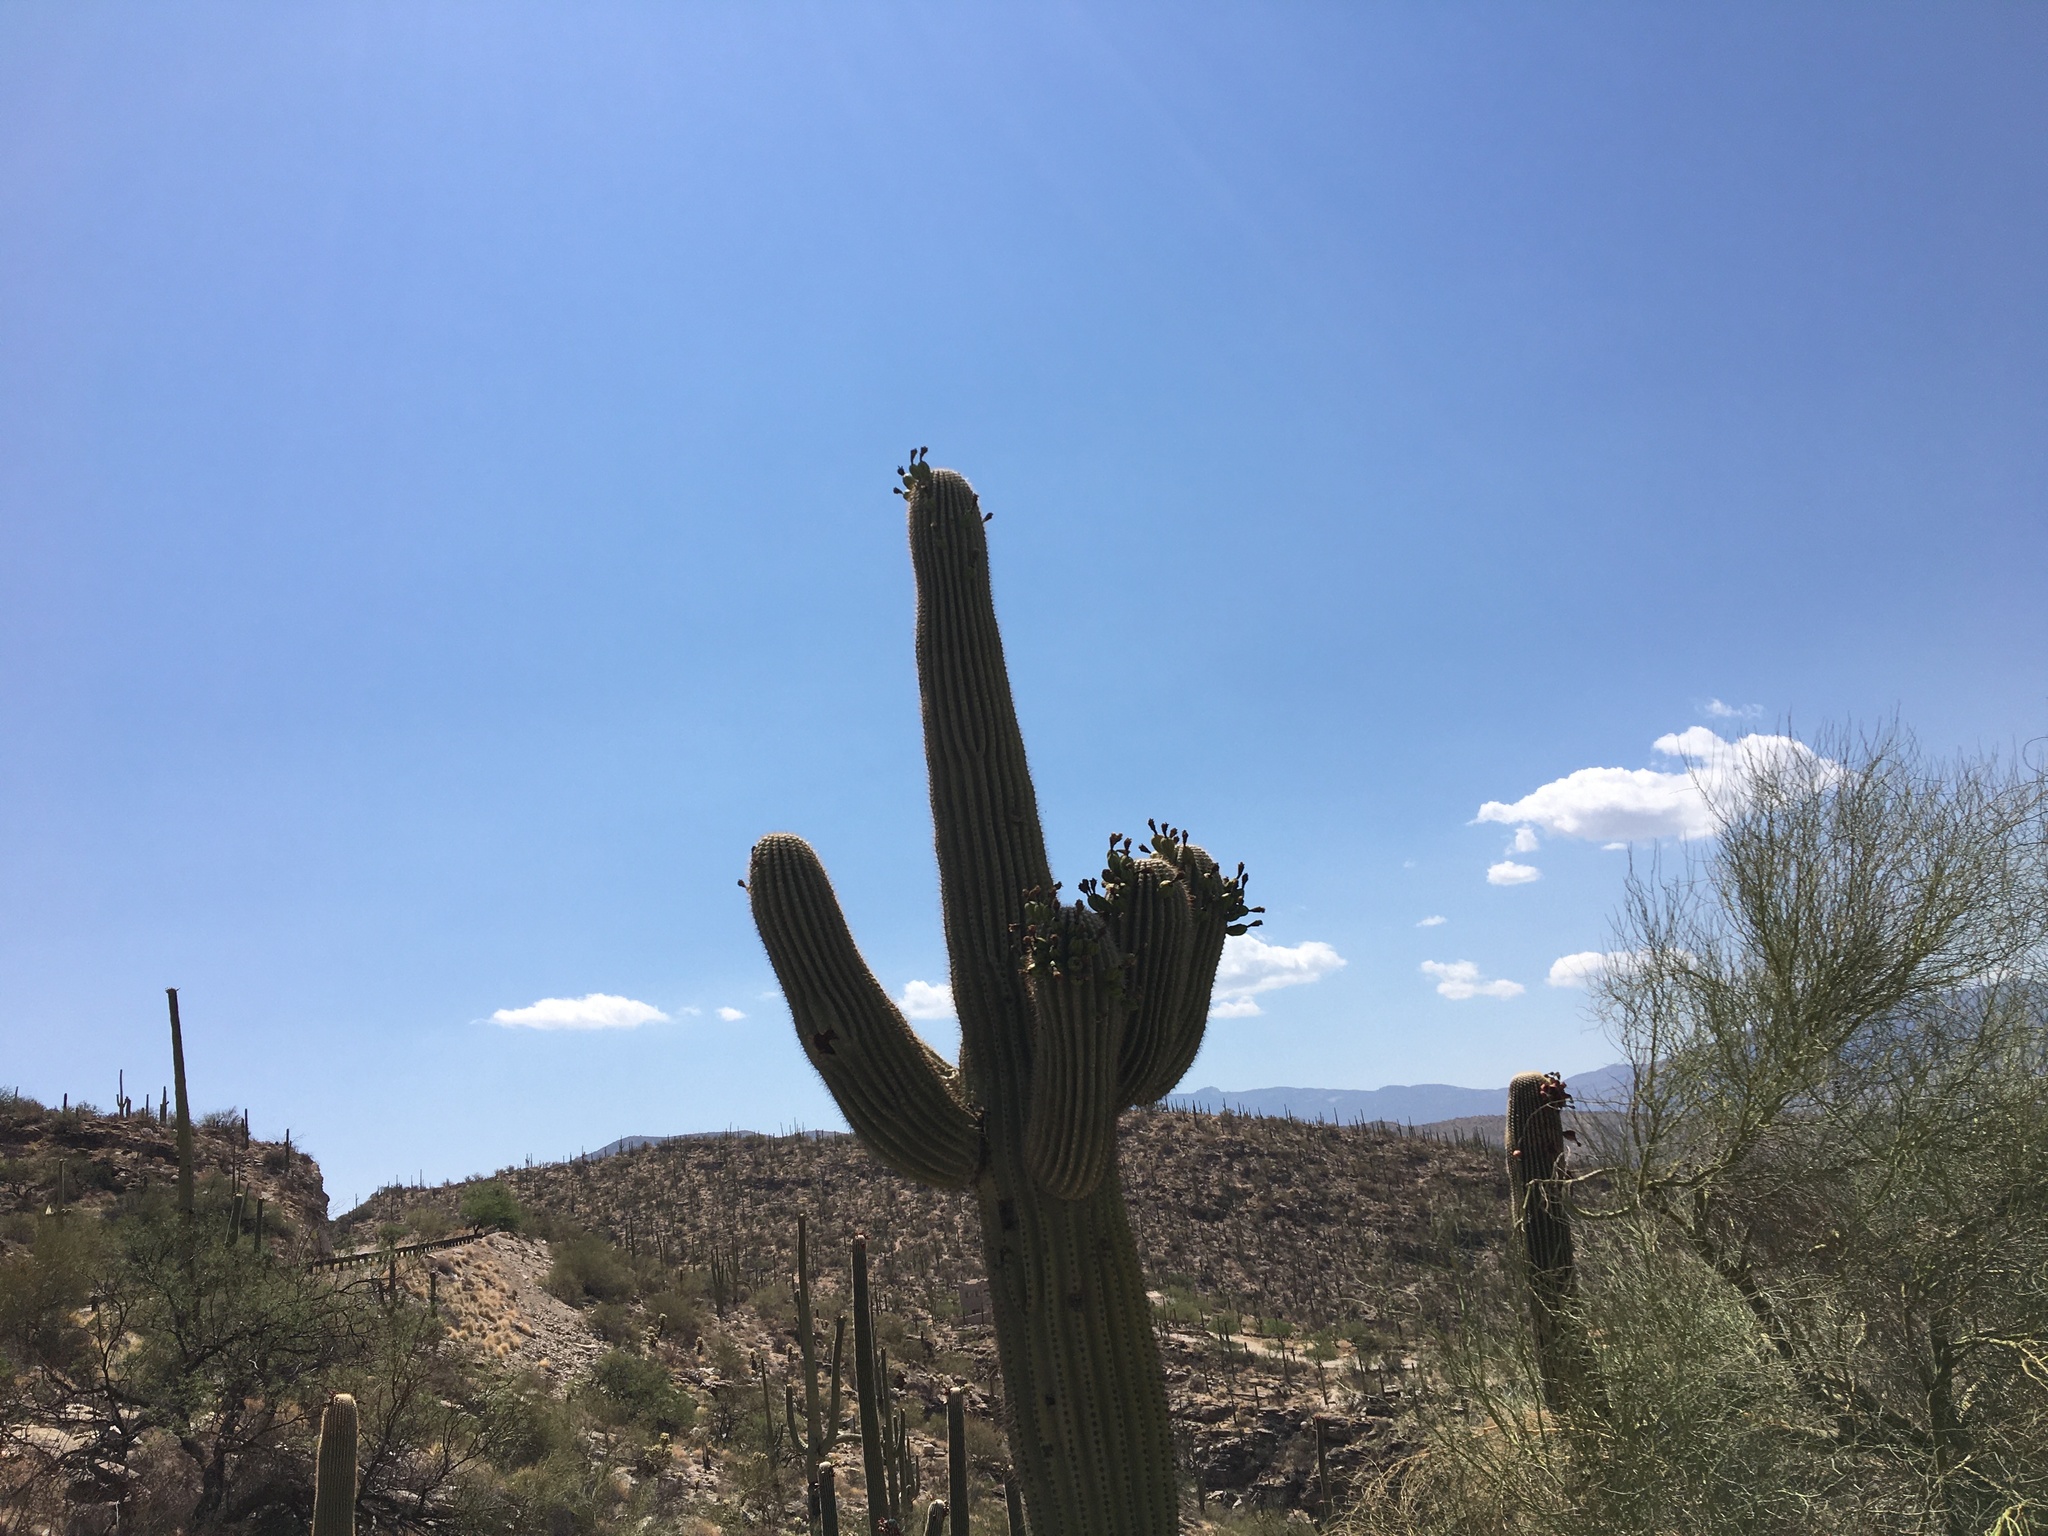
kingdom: Plantae
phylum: Tracheophyta
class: Magnoliopsida
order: Caryophyllales
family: Cactaceae
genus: Carnegiea
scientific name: Carnegiea gigantea
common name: Saguaro
